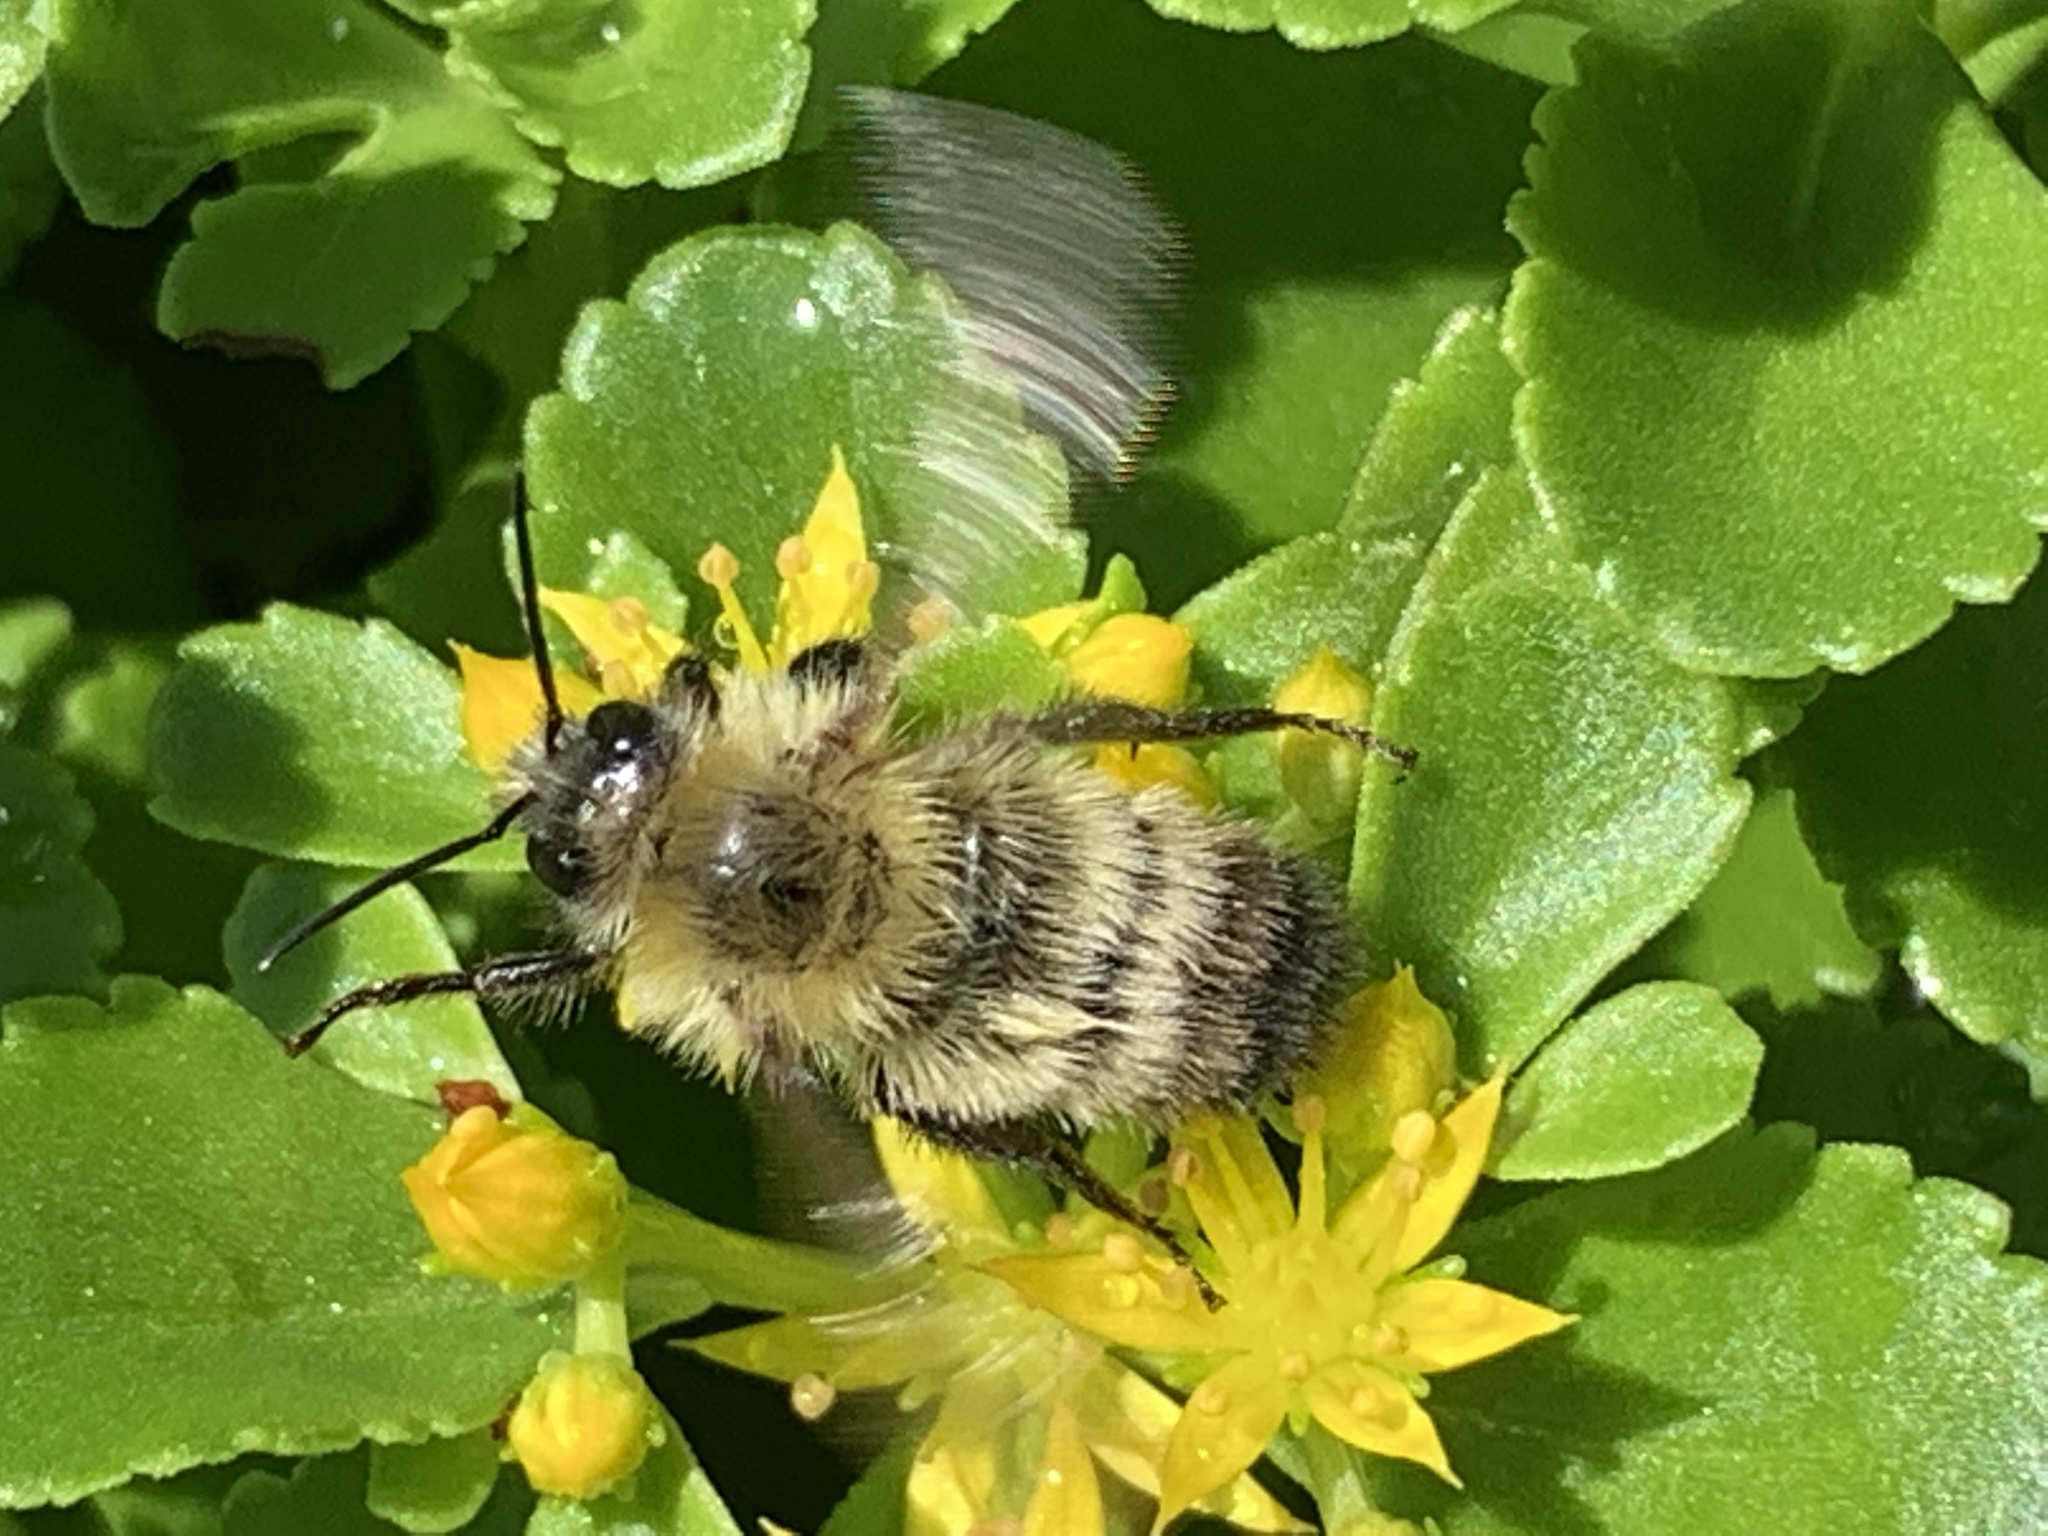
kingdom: Animalia
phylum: Arthropoda
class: Insecta
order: Hymenoptera
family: Apidae
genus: Bombus
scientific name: Bombus perplexus
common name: Confusing bumble bee
